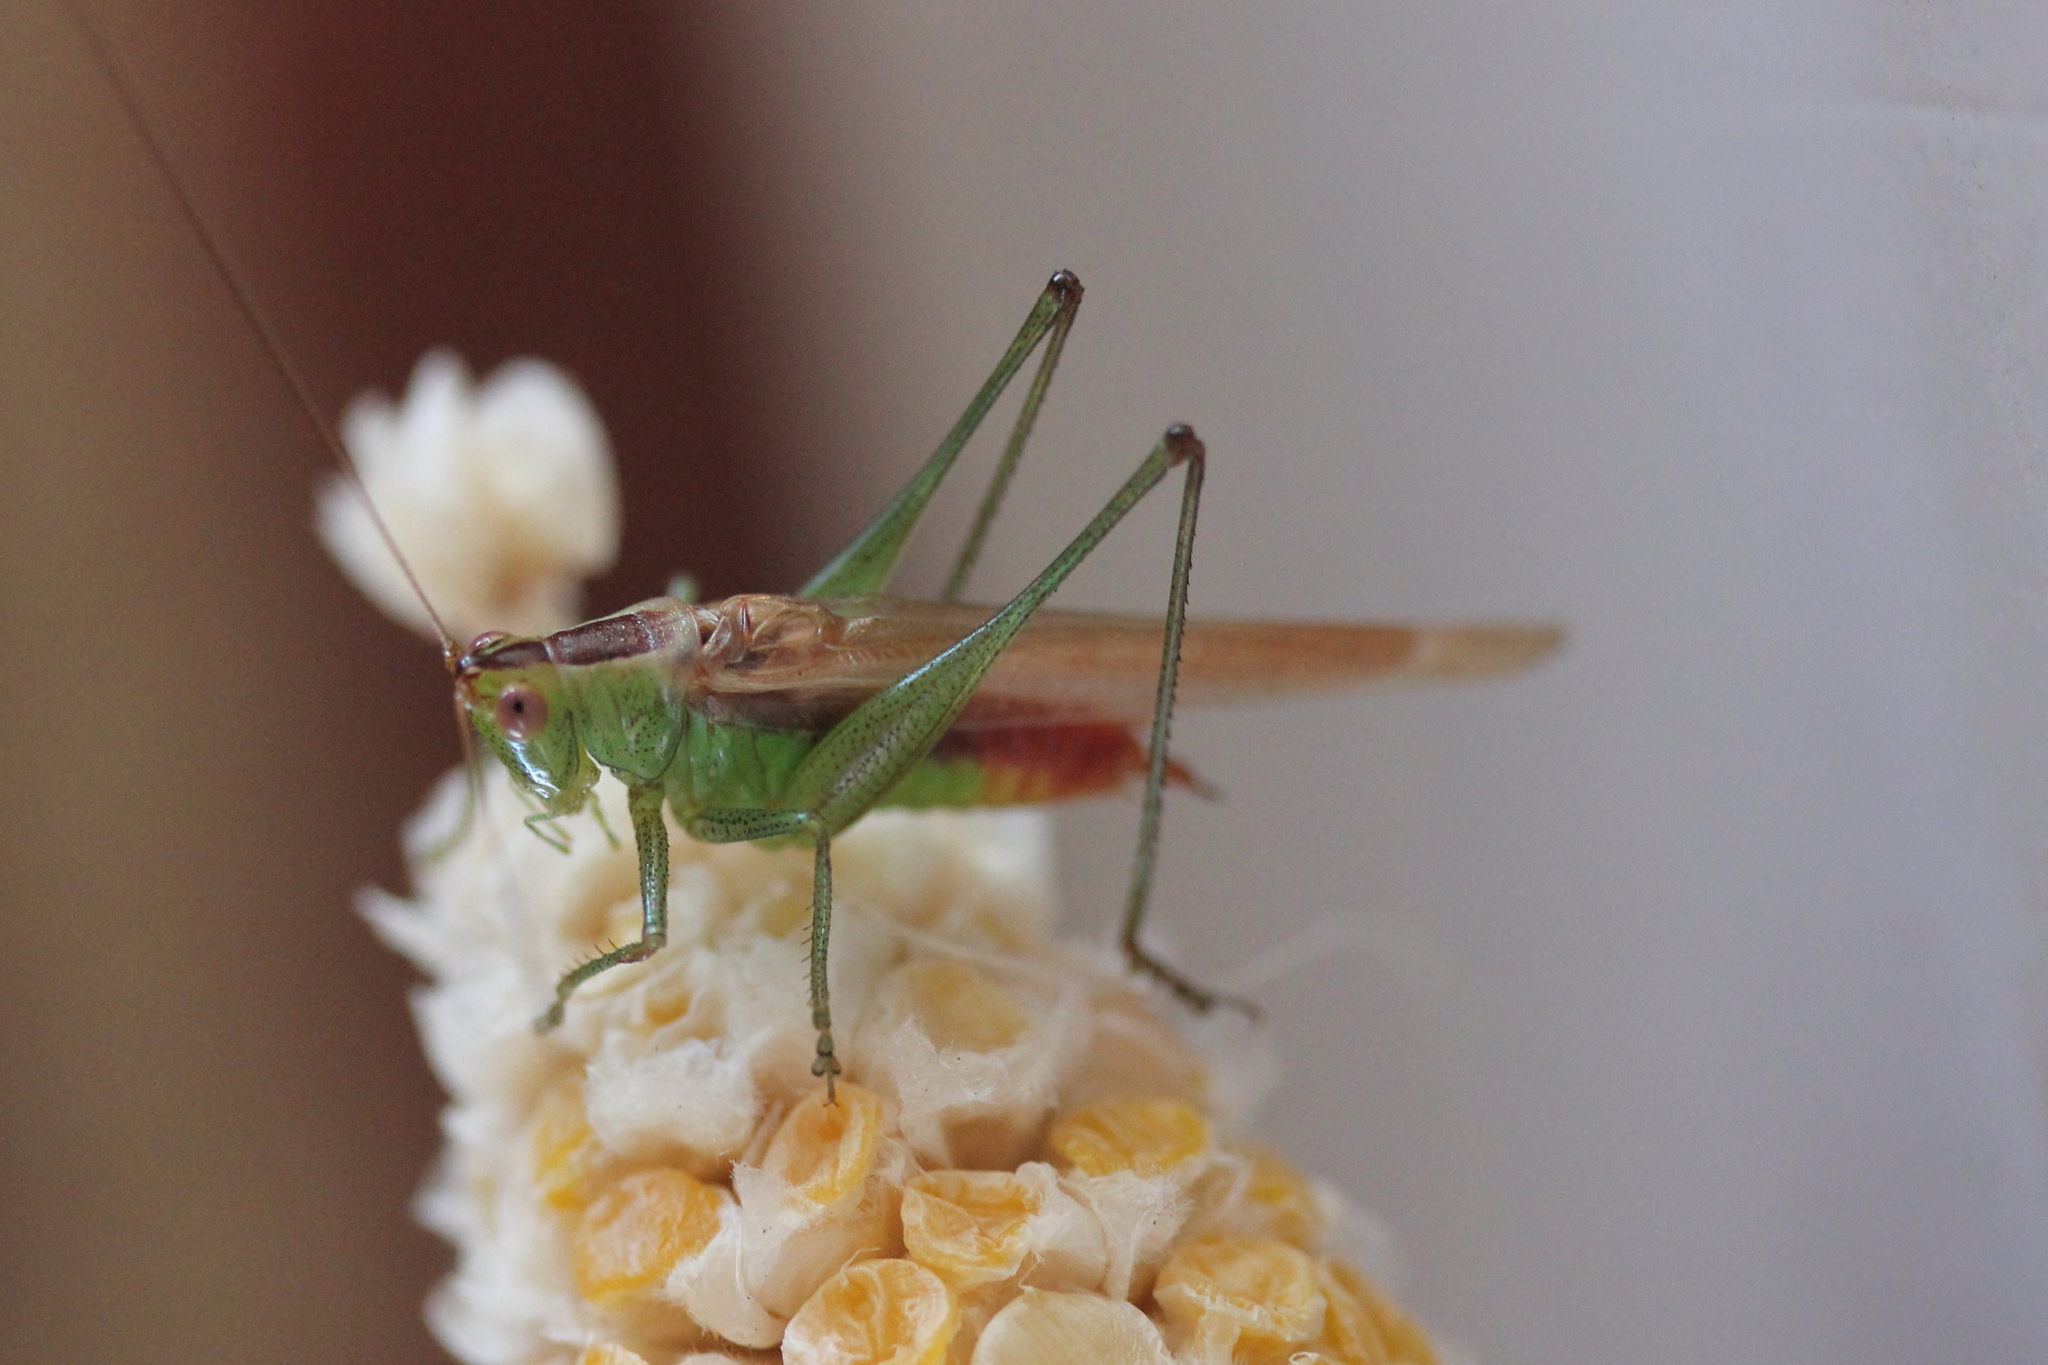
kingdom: Animalia
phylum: Arthropoda
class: Insecta
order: Orthoptera
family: Tettigoniidae
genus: Conocephalus
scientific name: Conocephalus brevipennis
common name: Short-winged meadow katydid
